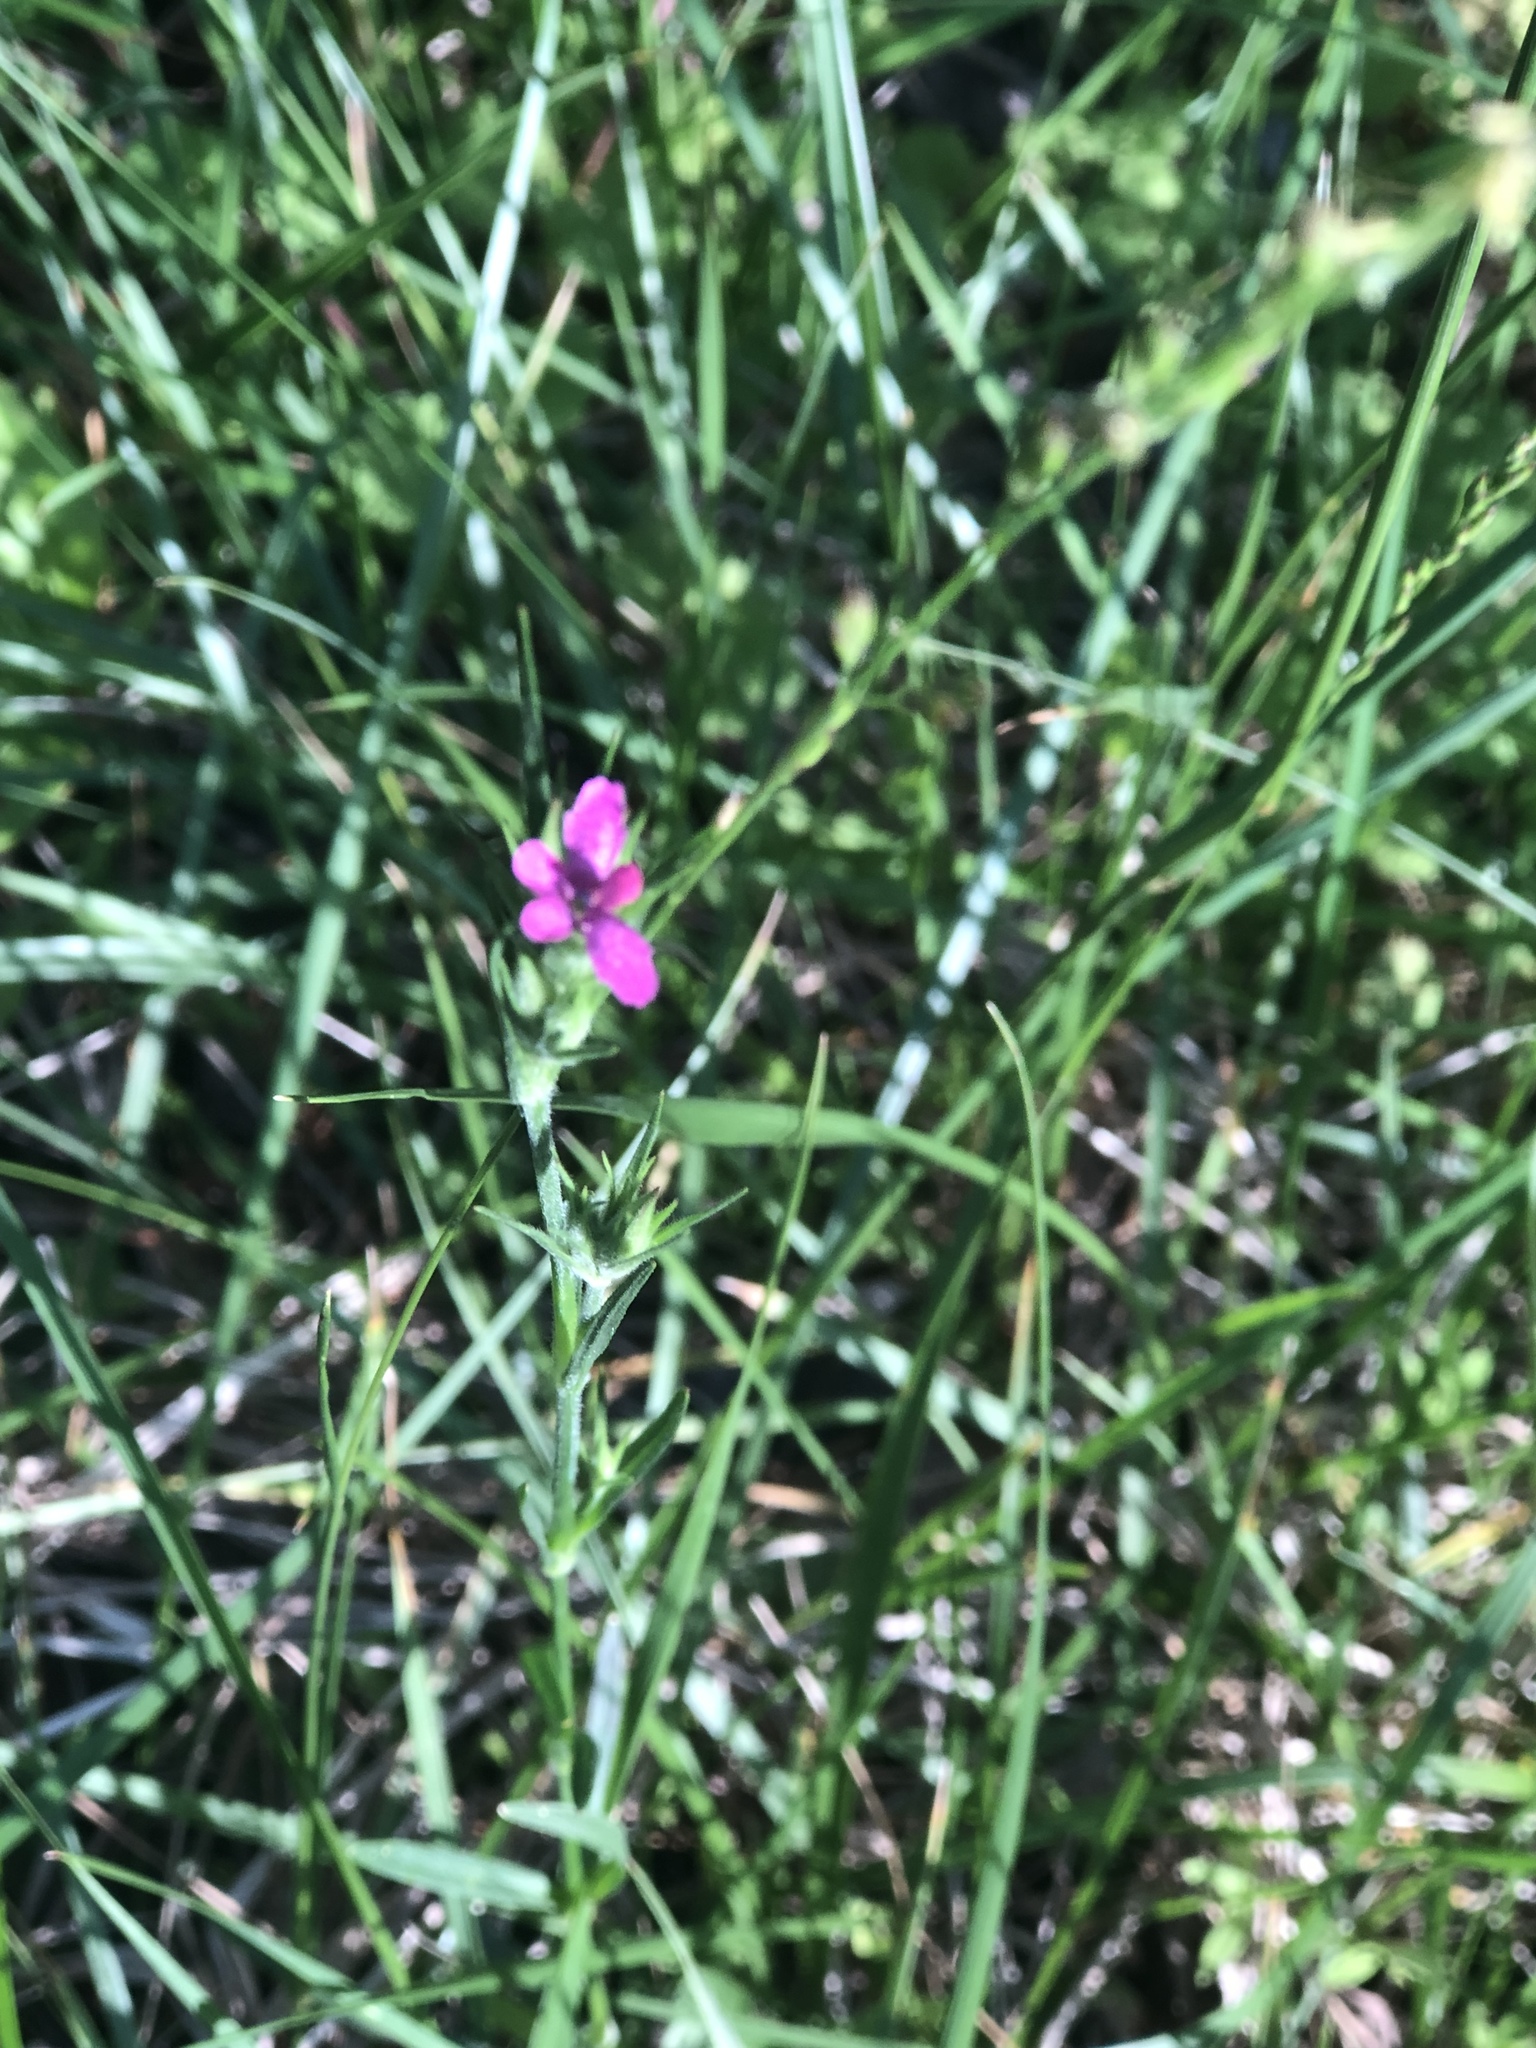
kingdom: Plantae
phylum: Tracheophyta
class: Magnoliopsida
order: Caryophyllales
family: Caryophyllaceae
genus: Dianthus
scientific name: Dianthus armeria
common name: Deptford pink
